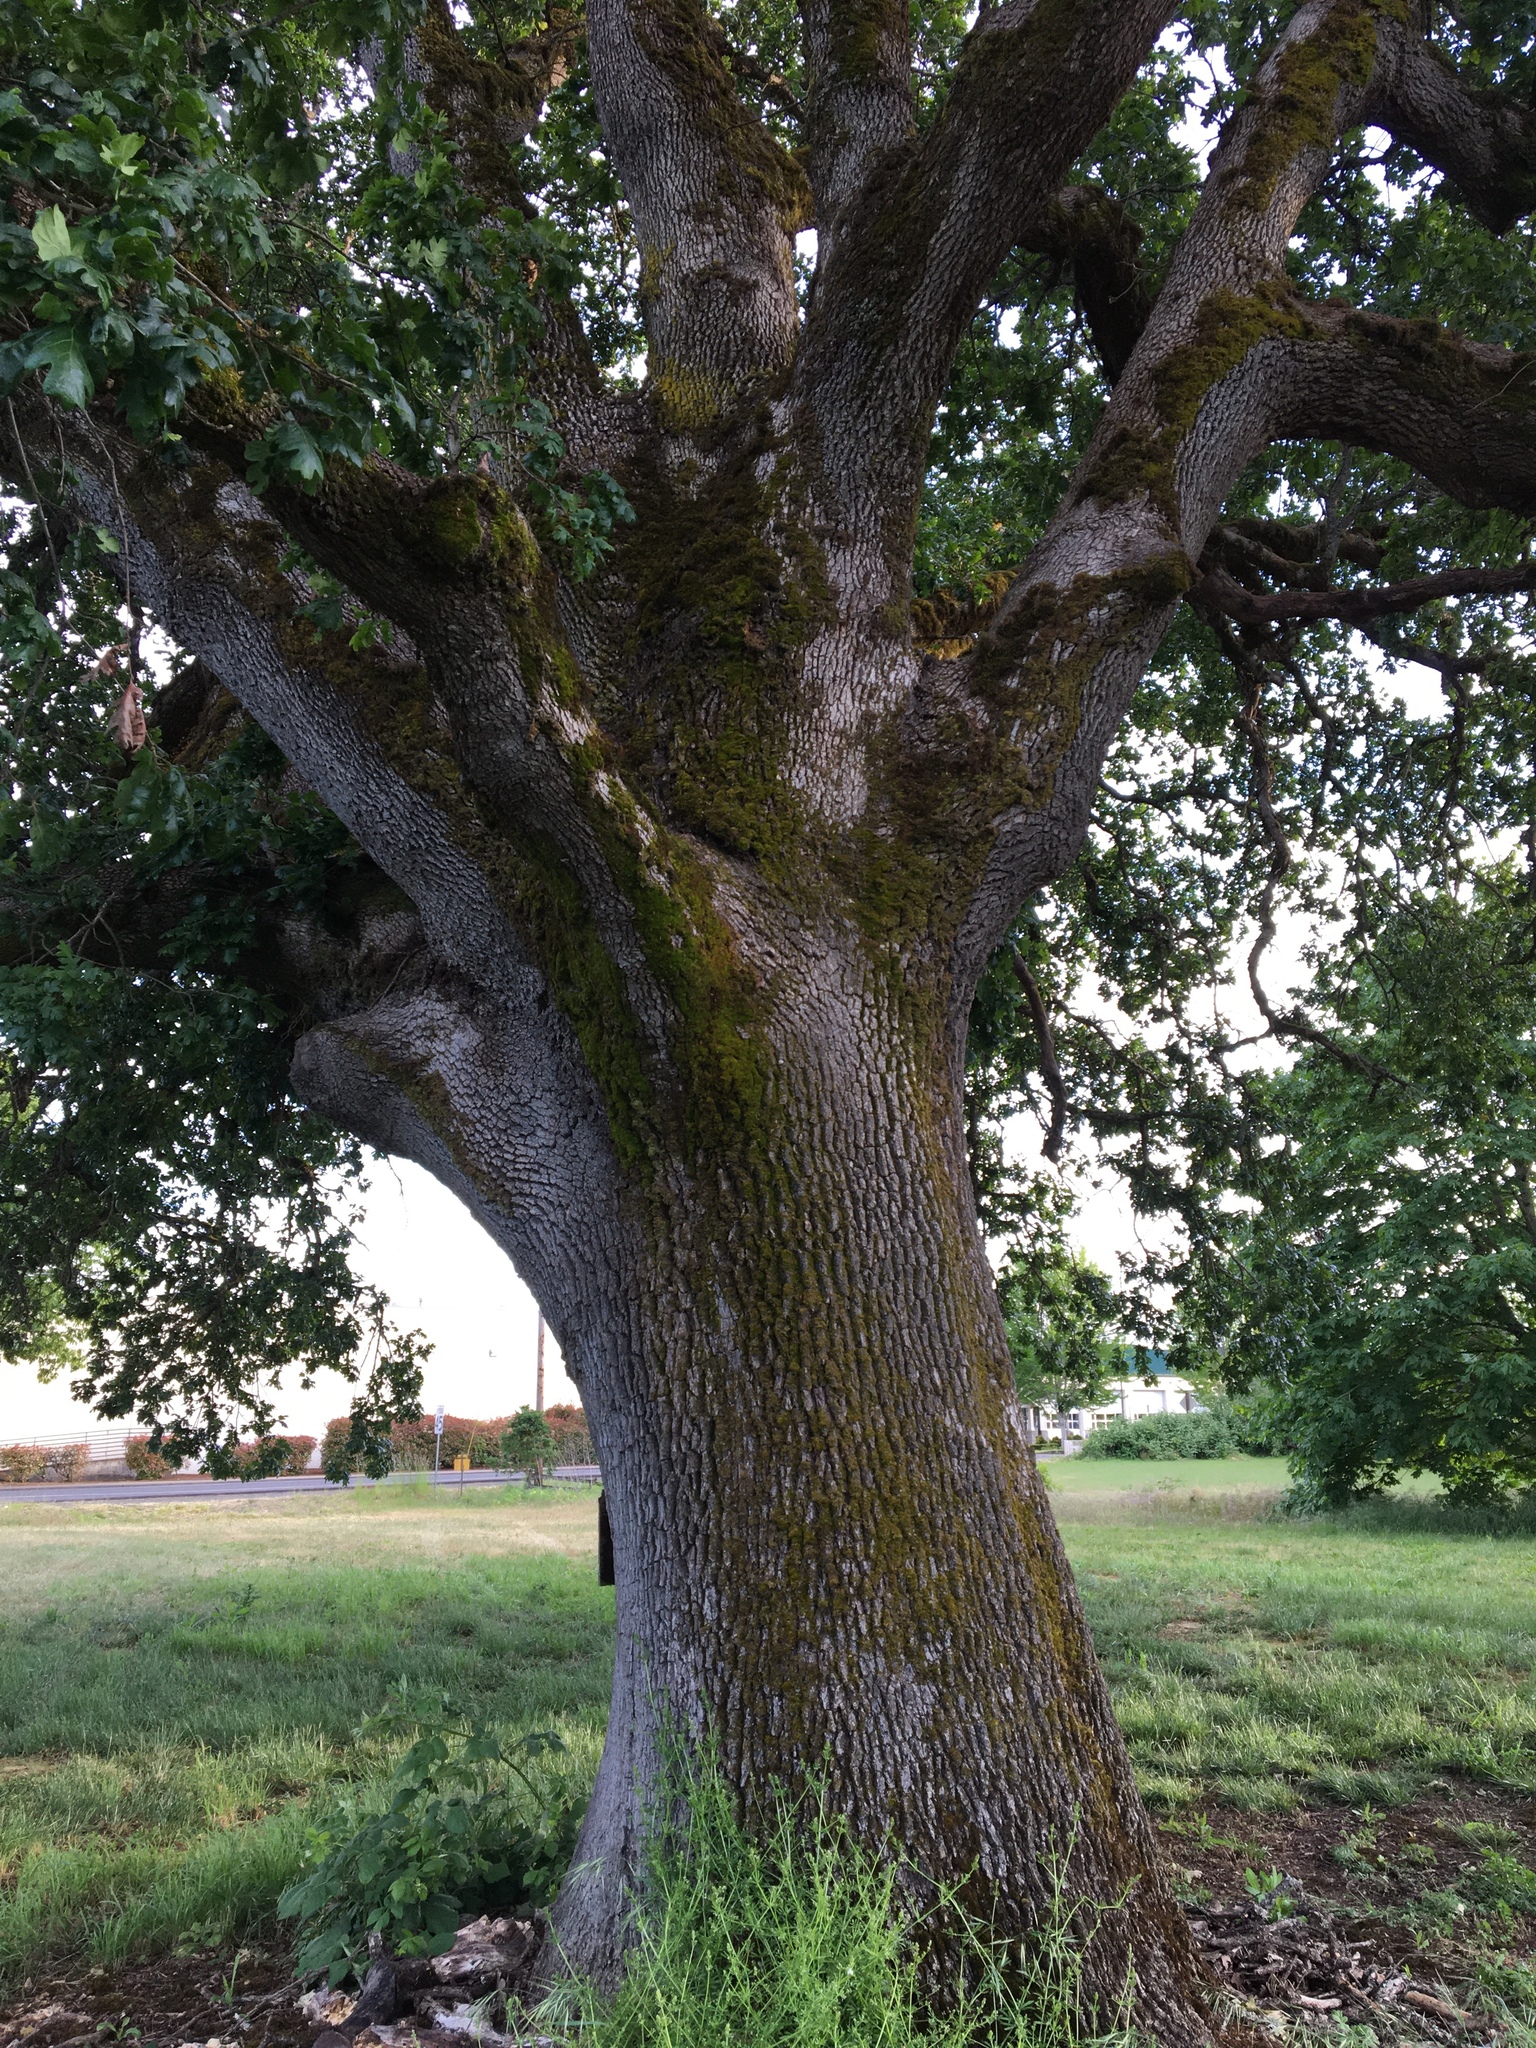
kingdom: Plantae
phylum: Tracheophyta
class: Magnoliopsida
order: Fagales
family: Fagaceae
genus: Quercus
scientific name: Quercus garryana
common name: Garry oak
